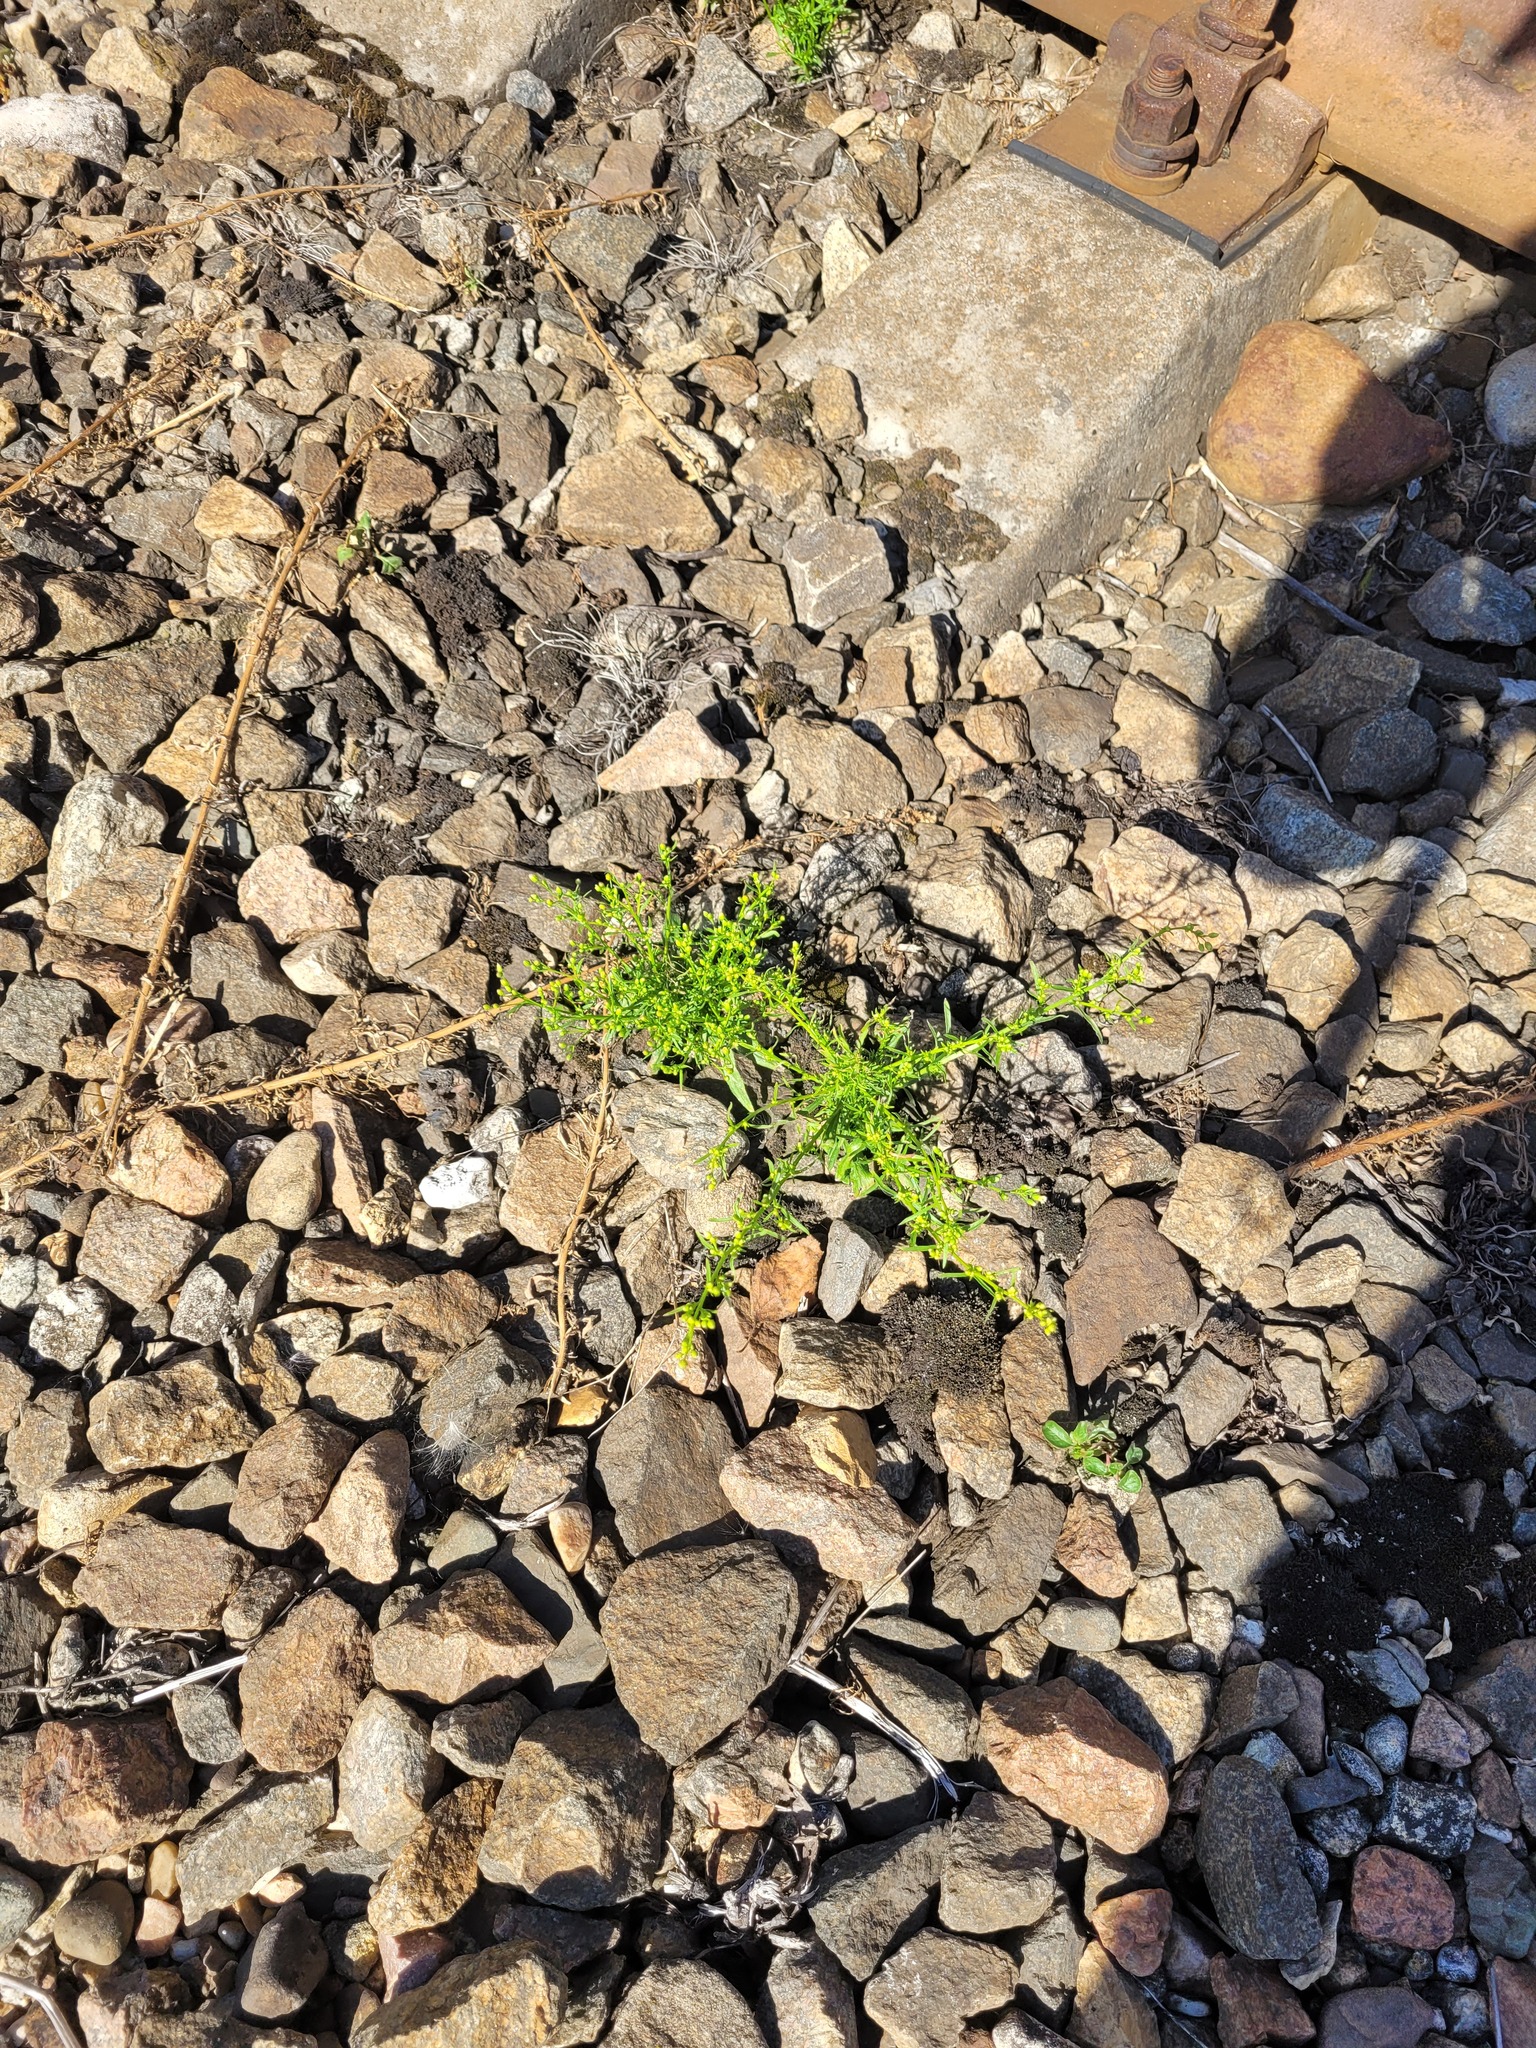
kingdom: Plantae
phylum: Tracheophyta
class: Magnoliopsida
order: Asterales
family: Asteraceae
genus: Erigeron
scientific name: Erigeron canadensis
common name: Canadian fleabane
